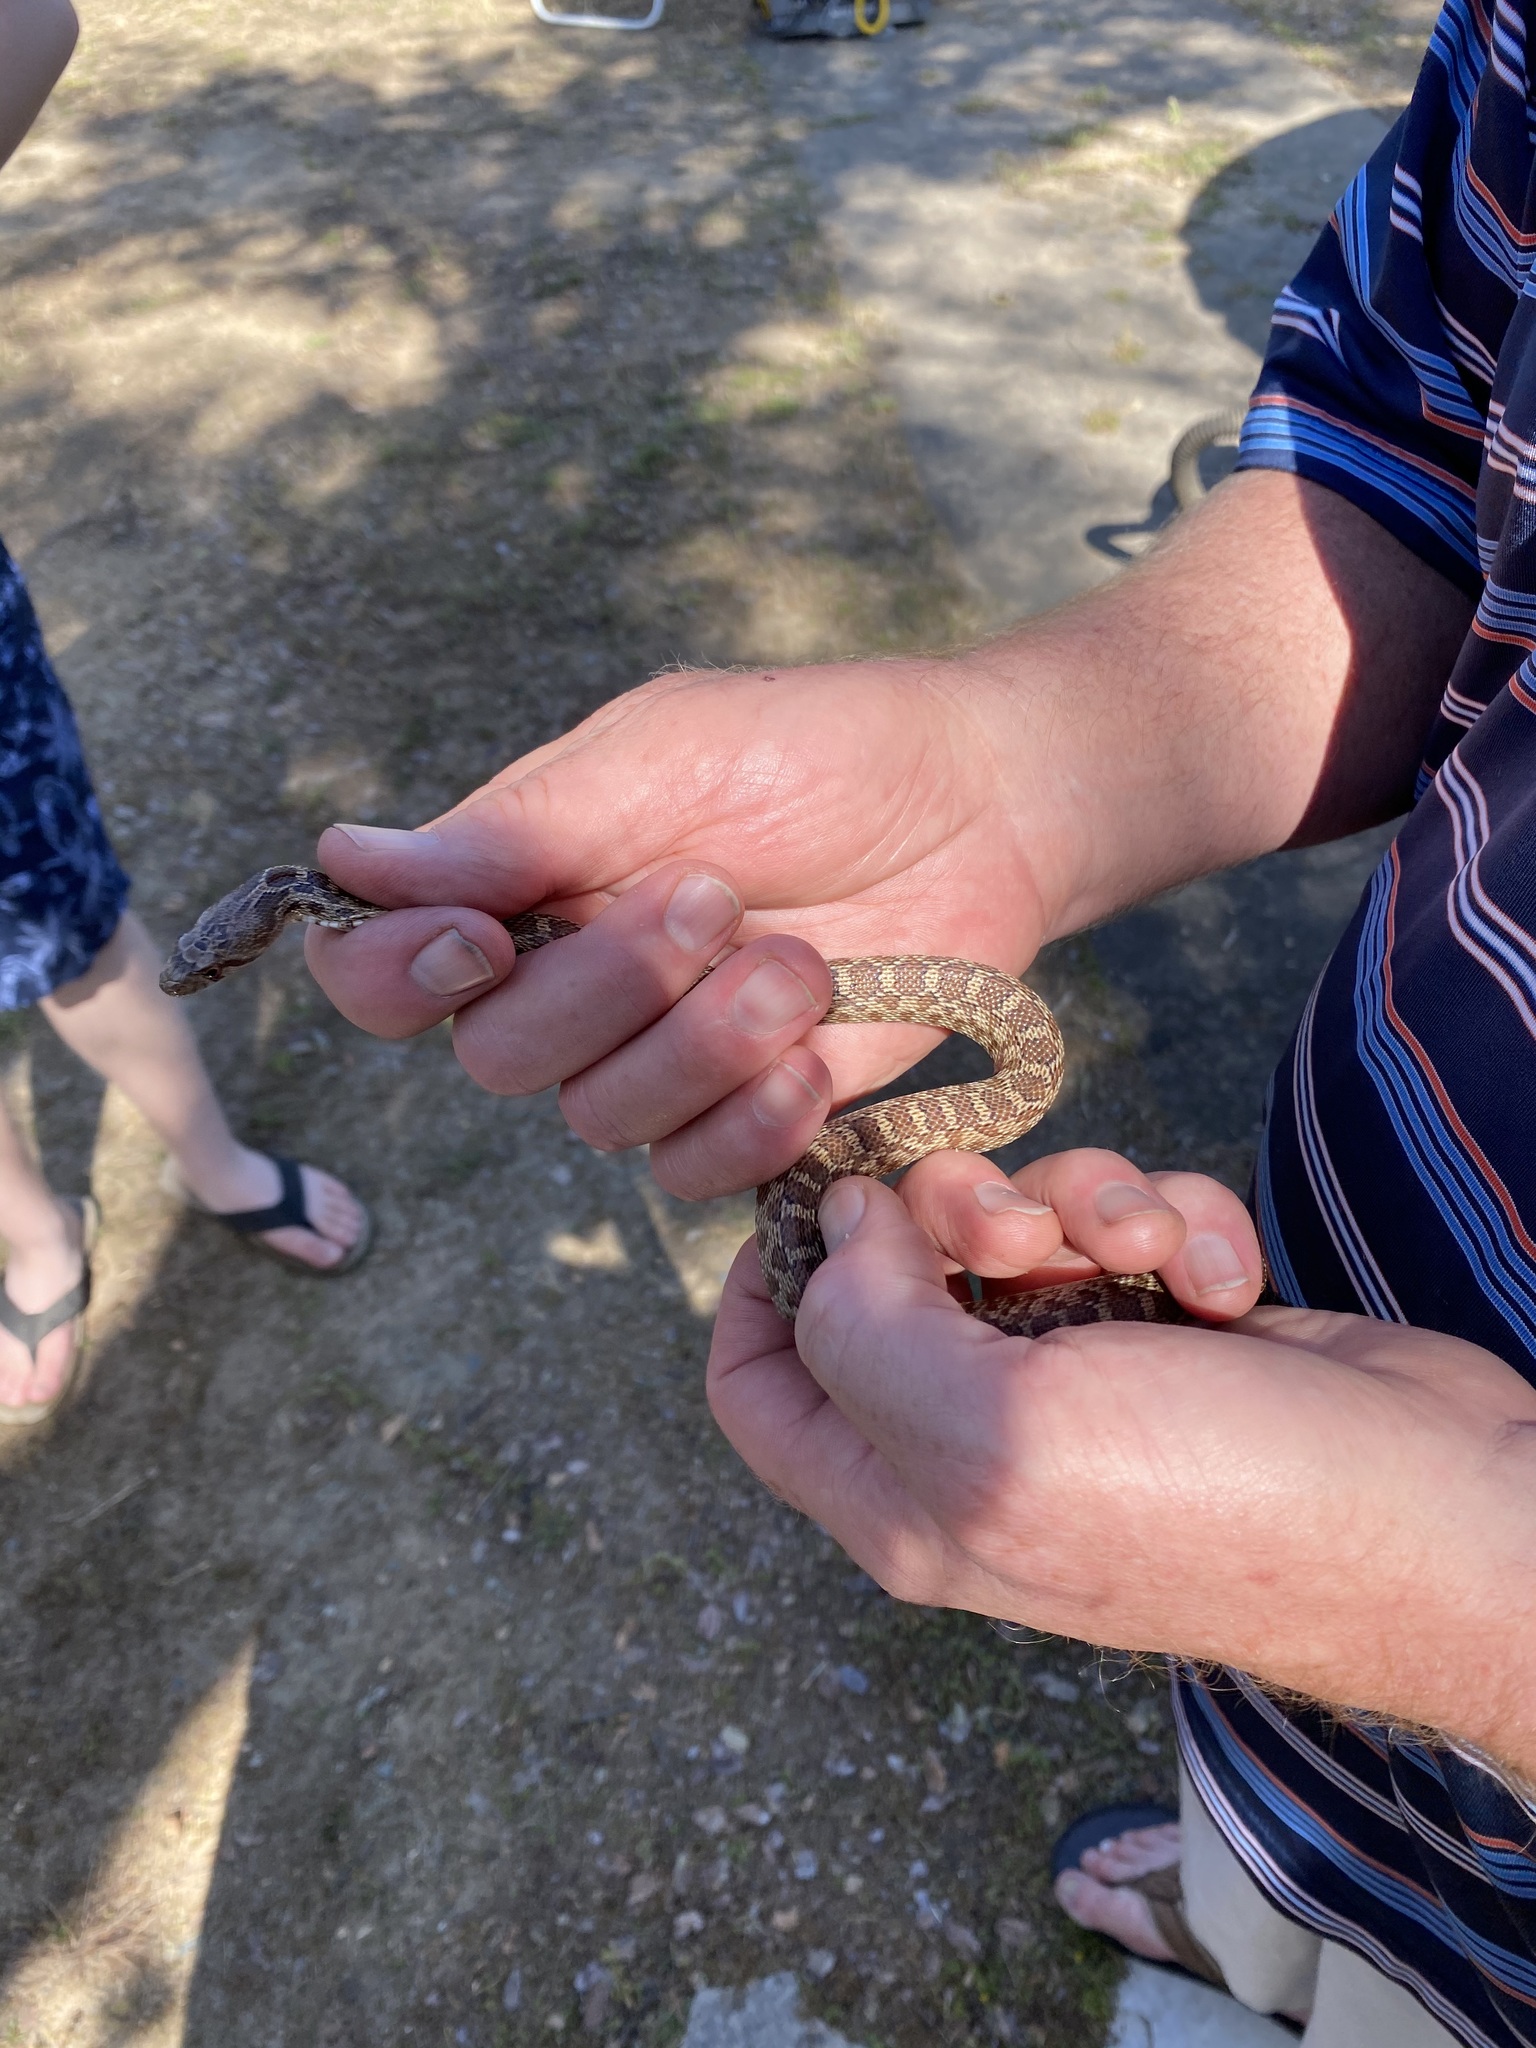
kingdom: Animalia
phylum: Chordata
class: Squamata
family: Colubridae
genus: Pituophis
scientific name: Pituophis catenifer
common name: Gopher snake
